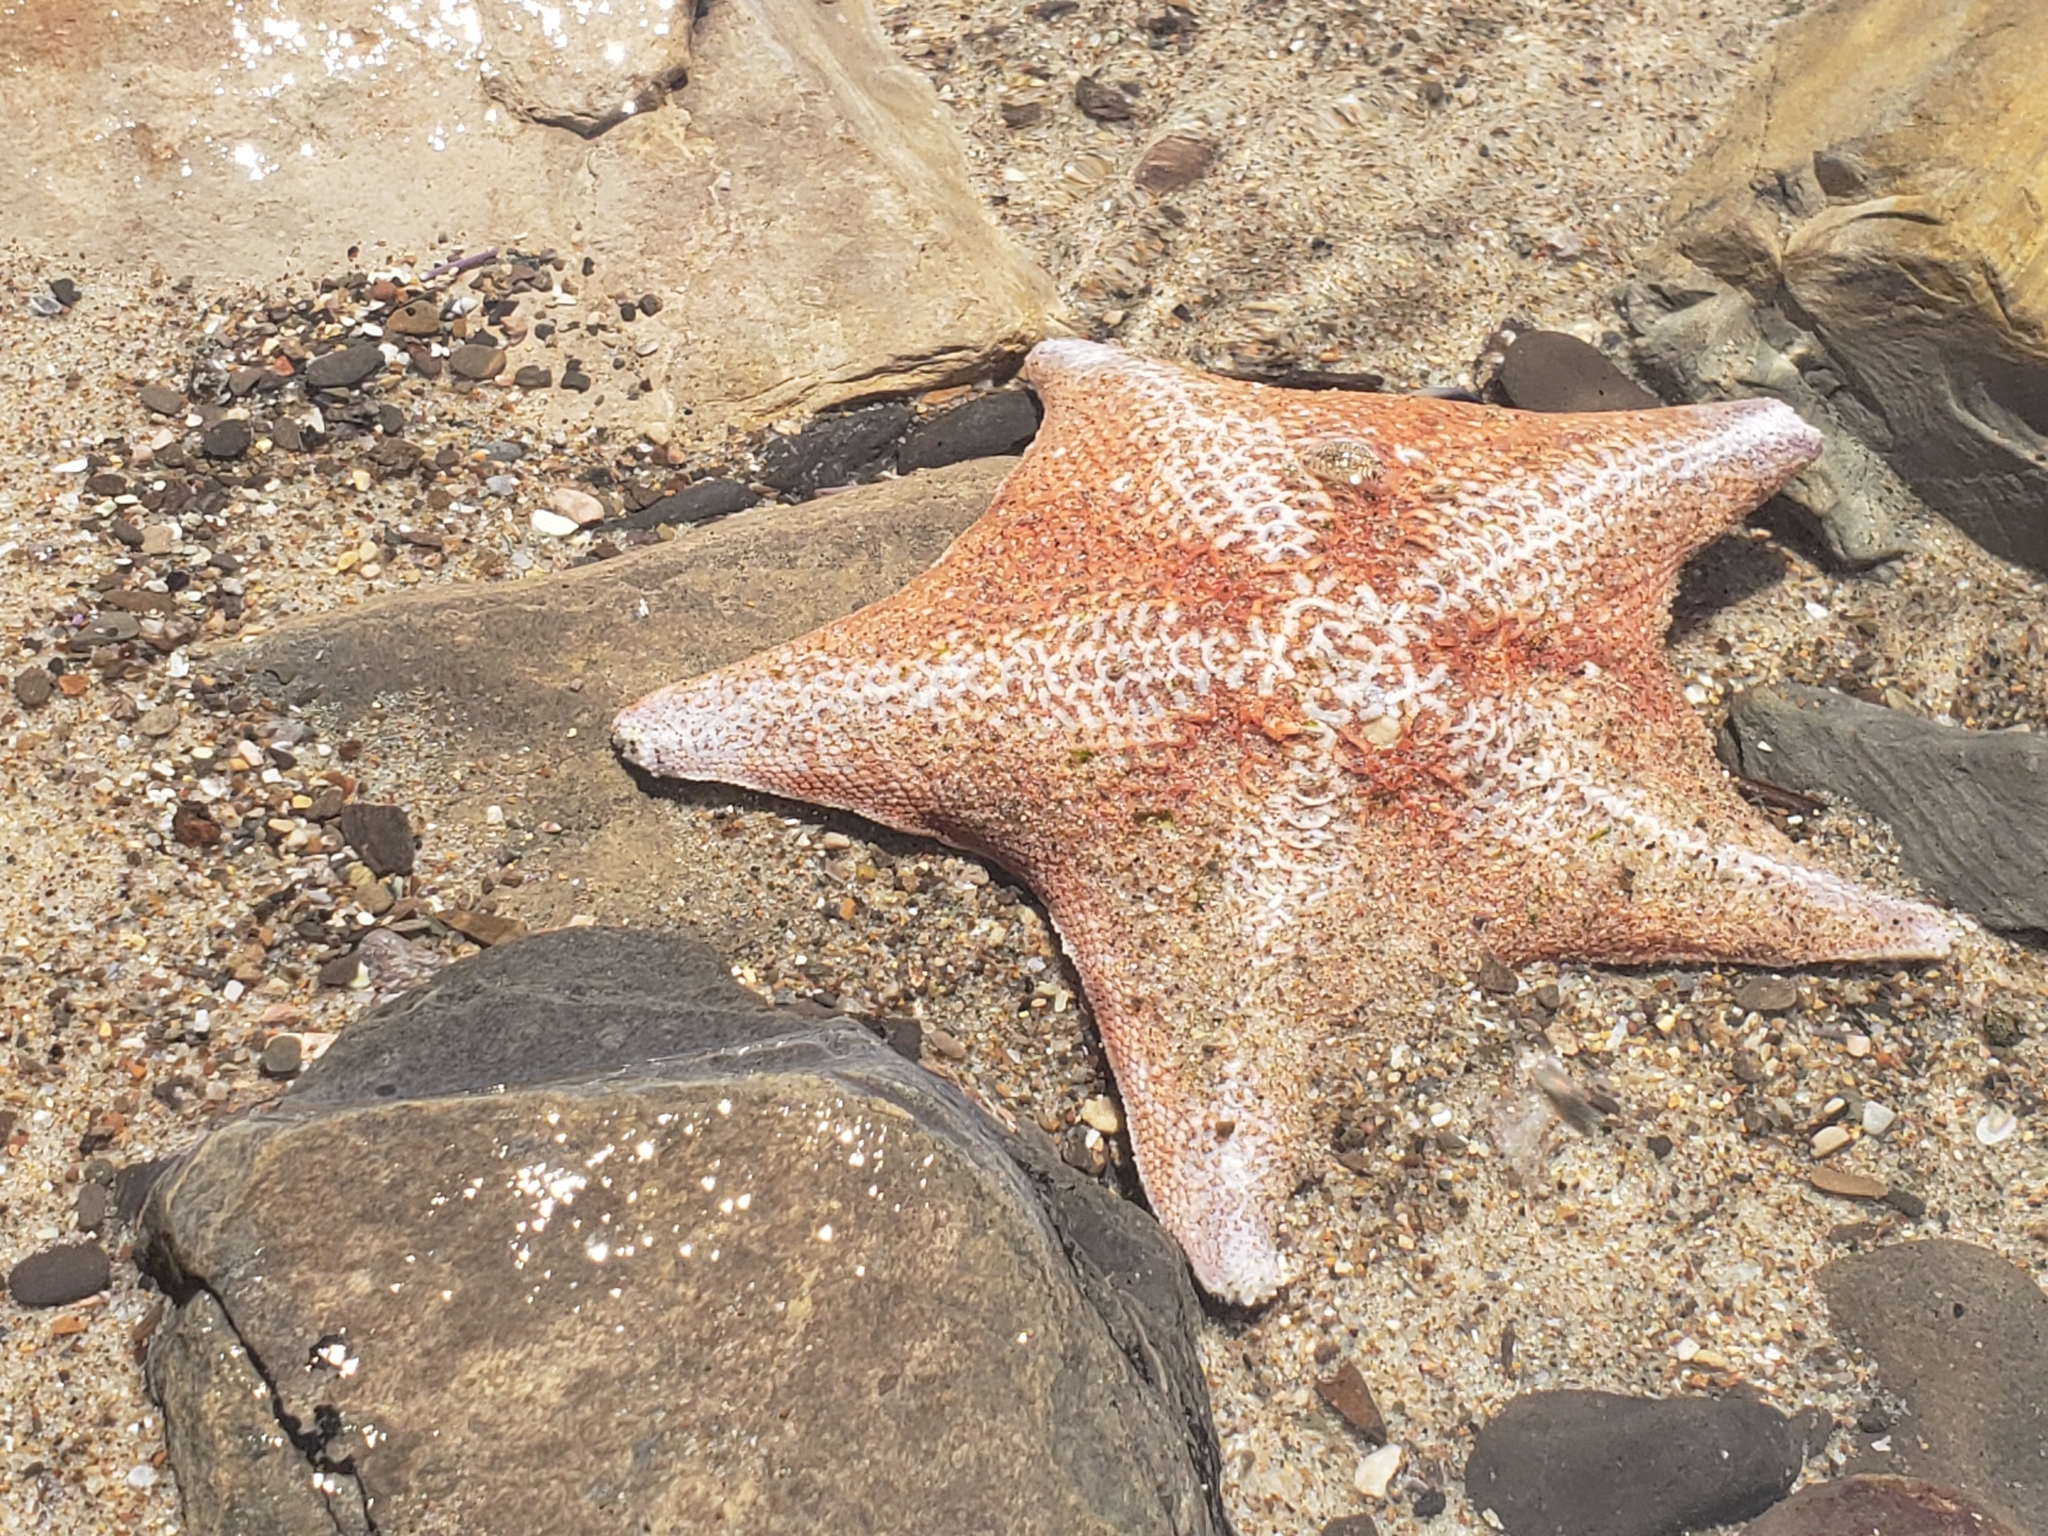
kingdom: Animalia
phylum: Echinodermata
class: Asteroidea
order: Valvatida
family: Asterinidae
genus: Patiria
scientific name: Patiria miniata
